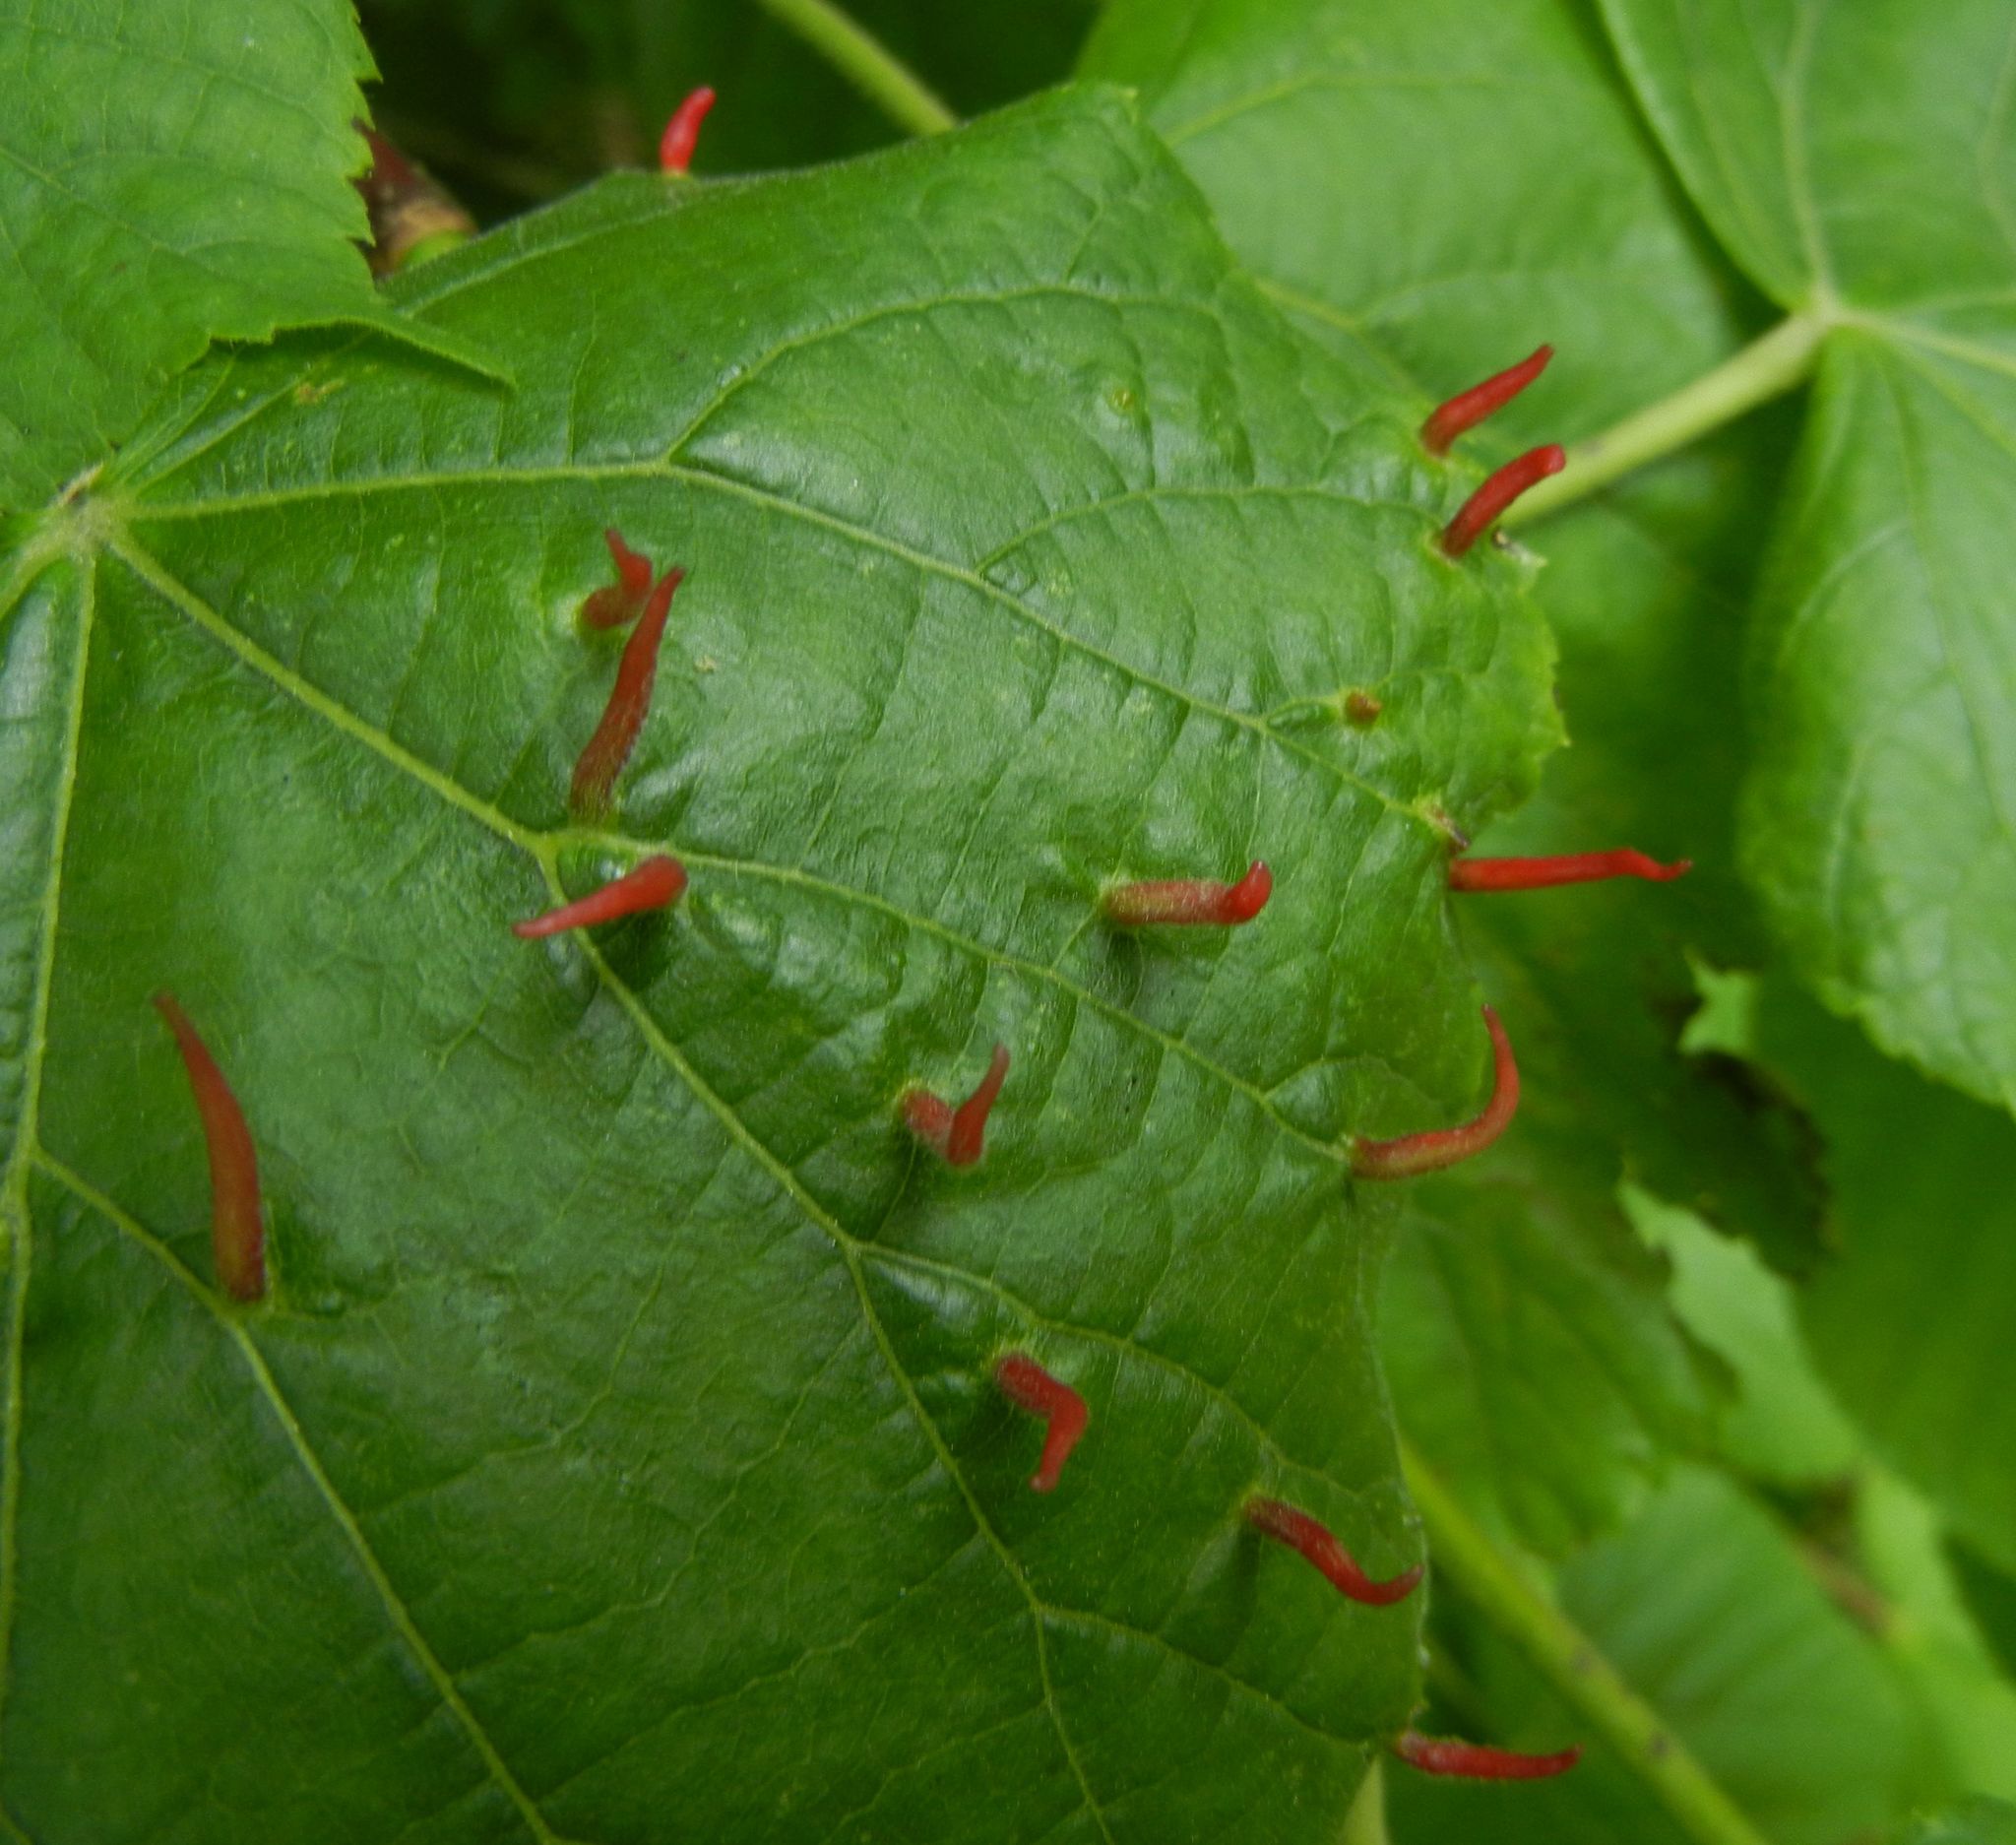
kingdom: Animalia
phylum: Arthropoda
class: Arachnida
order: Trombidiformes
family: Eriophyidae
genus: Eriophyes
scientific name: Eriophyes tiliae
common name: Red nail gall mite
